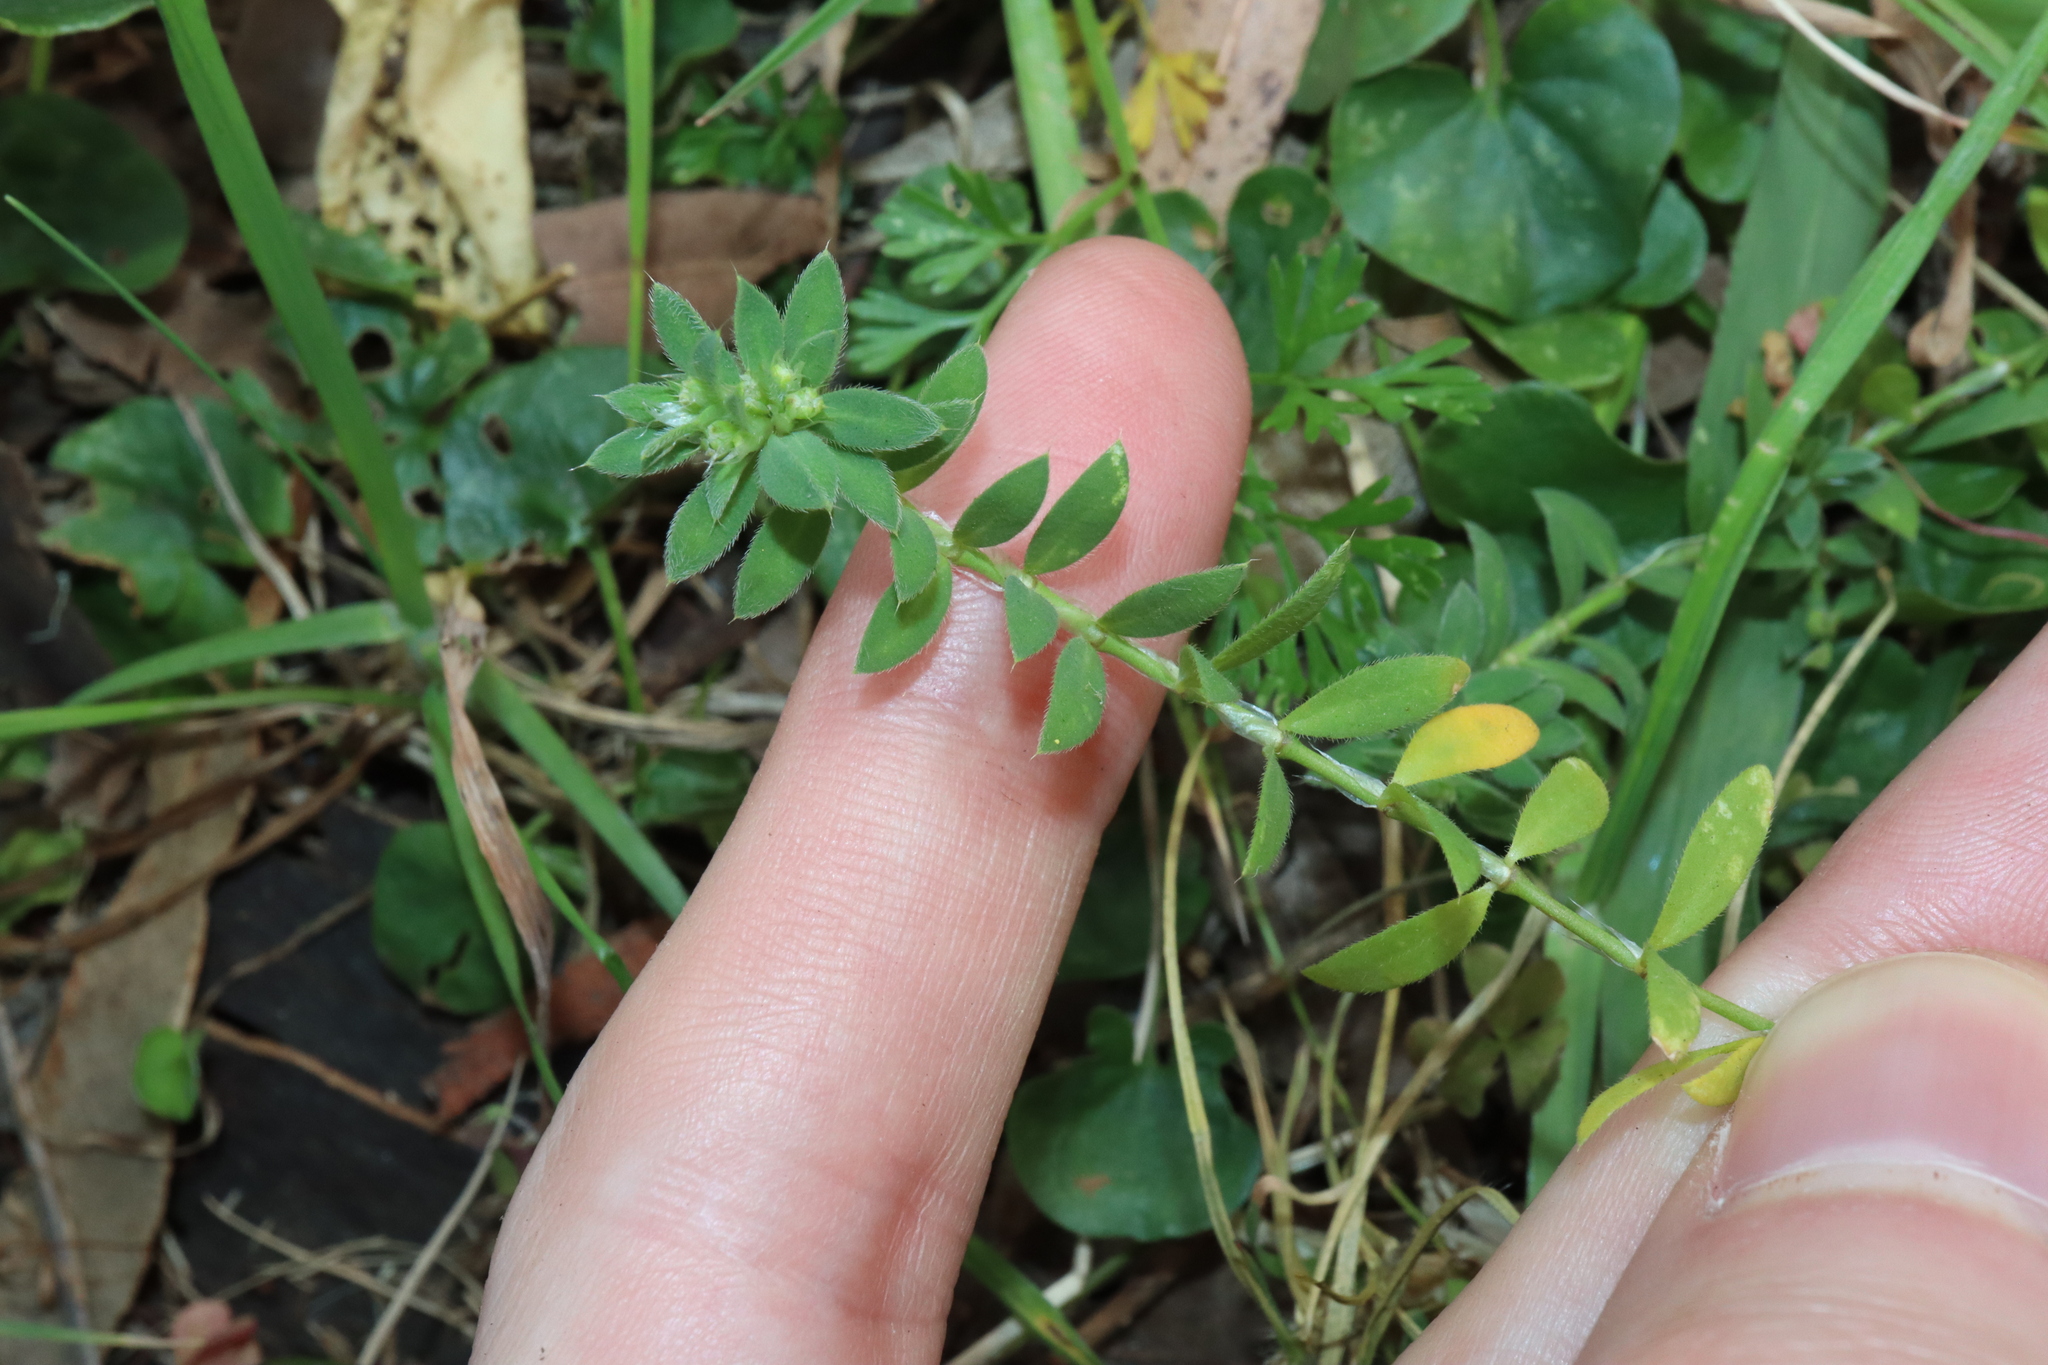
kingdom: Plantae
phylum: Tracheophyta
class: Magnoliopsida
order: Caryophyllales
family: Caryophyllaceae
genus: Paronychia
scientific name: Paronychia brasiliana
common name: Brazilian whitlow
